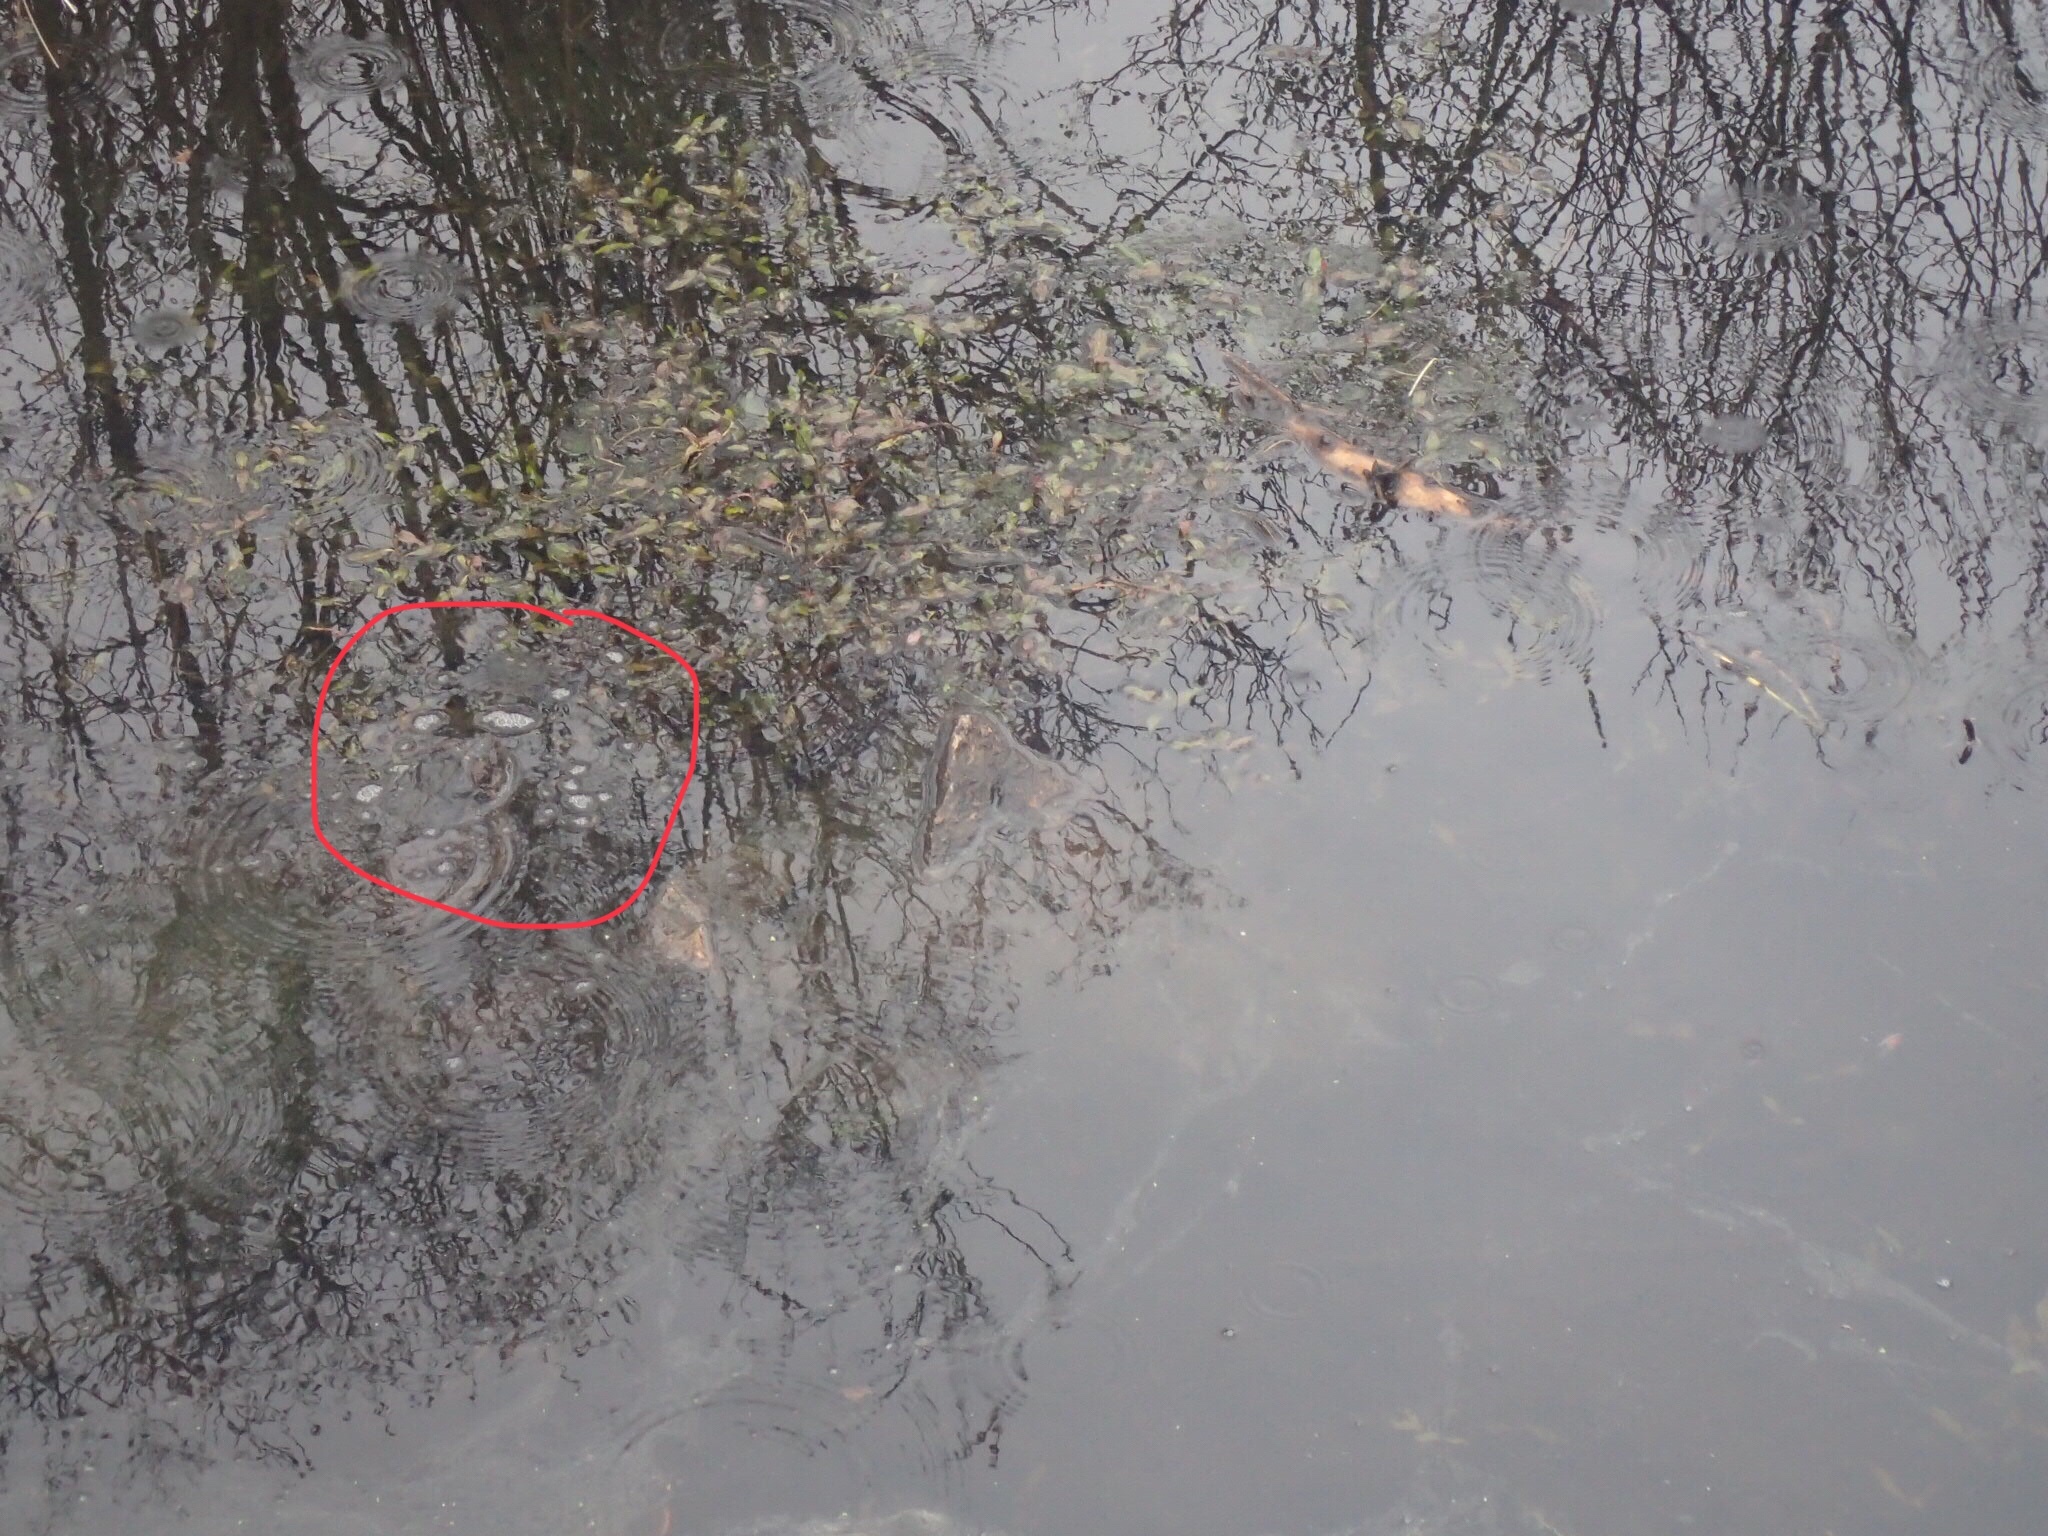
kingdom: Animalia
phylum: Chordata
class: Testudines
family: Chelydridae
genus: Chelydra
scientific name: Chelydra serpentina
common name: Common snapping turtle
